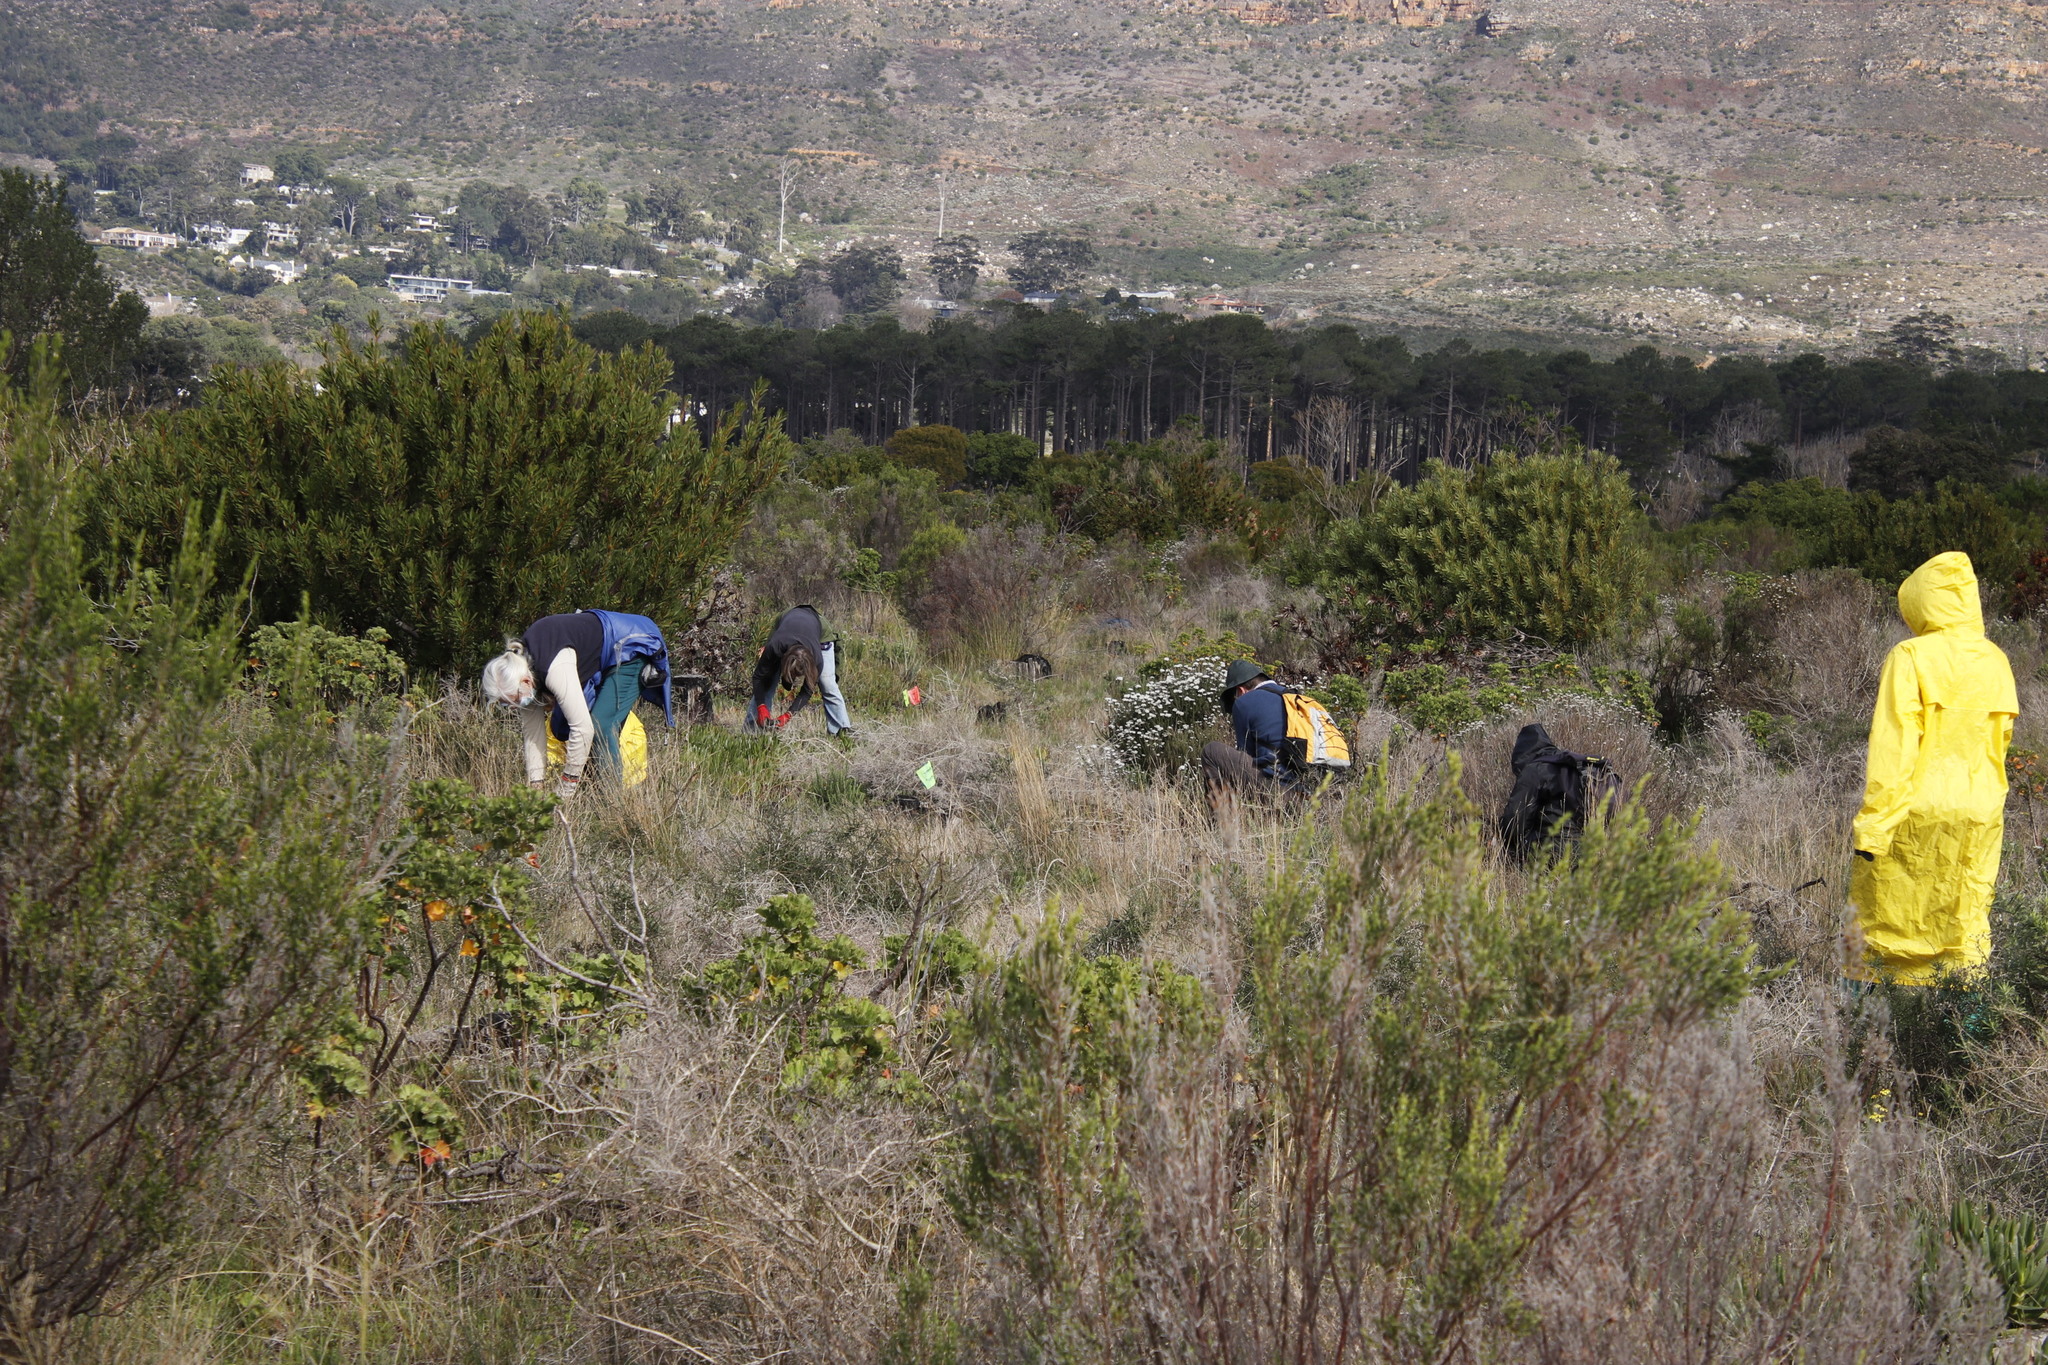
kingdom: Plantae
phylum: Tracheophyta
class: Magnoliopsida
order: Malvales
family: Thymelaeaceae
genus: Passerina
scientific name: Passerina corymbosa
